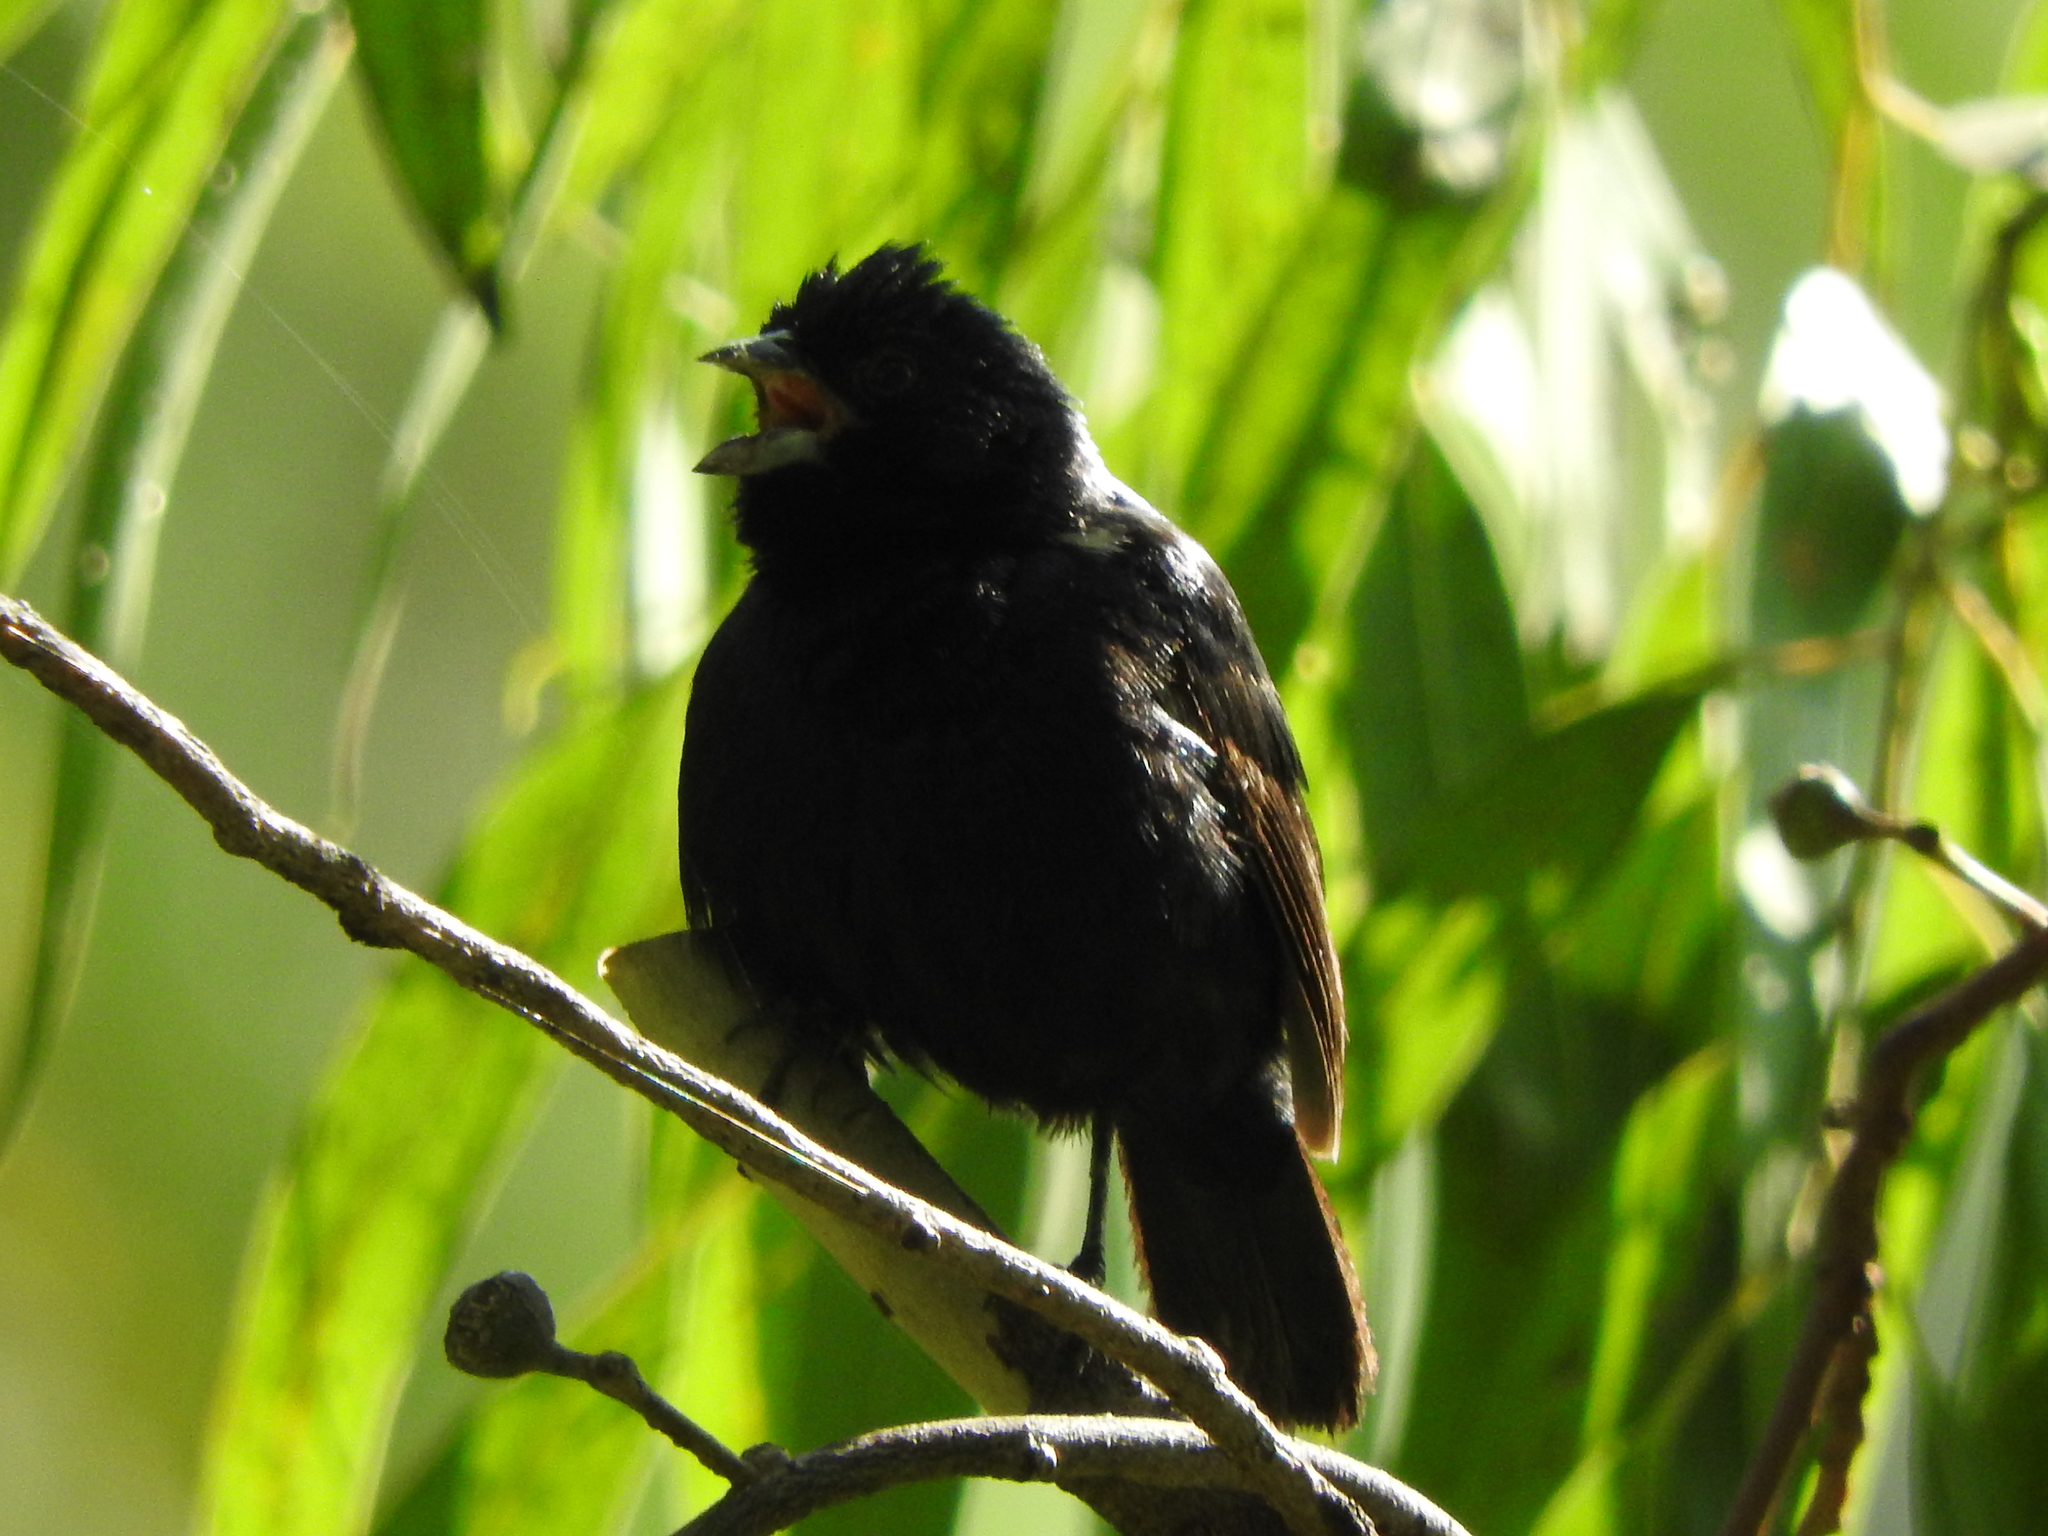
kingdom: Animalia
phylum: Chordata
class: Aves
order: Passeriformes
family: Thraupidae
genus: Volatinia
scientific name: Volatinia jacarina
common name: Blue-black grassquit
